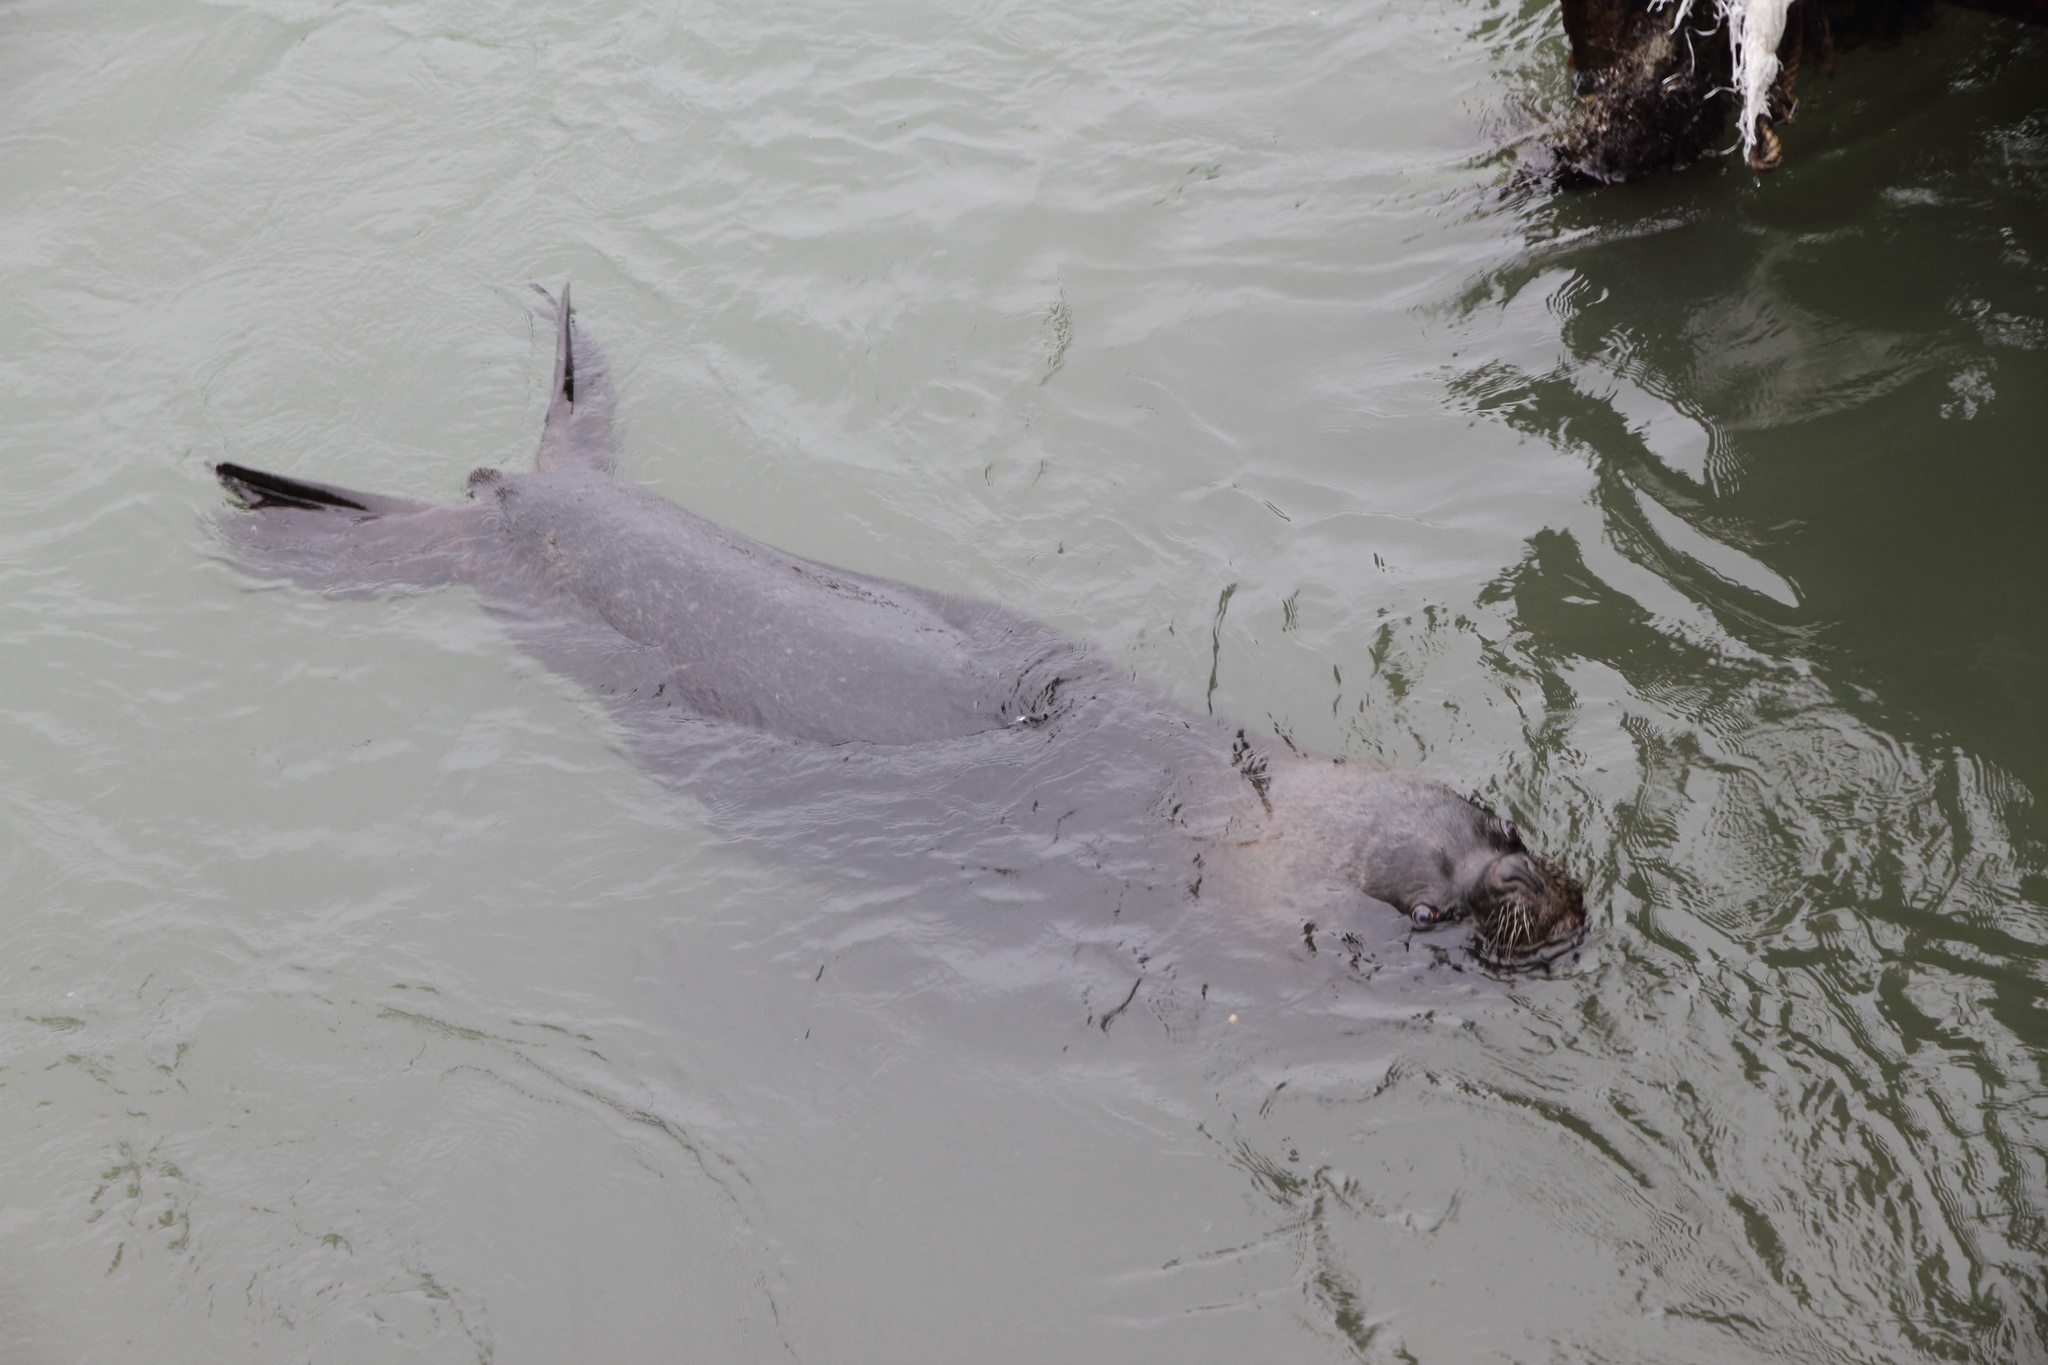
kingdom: Animalia
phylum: Chordata
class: Mammalia
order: Carnivora
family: Otariidae
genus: Otaria
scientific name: Otaria byronia
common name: South american sea lion
